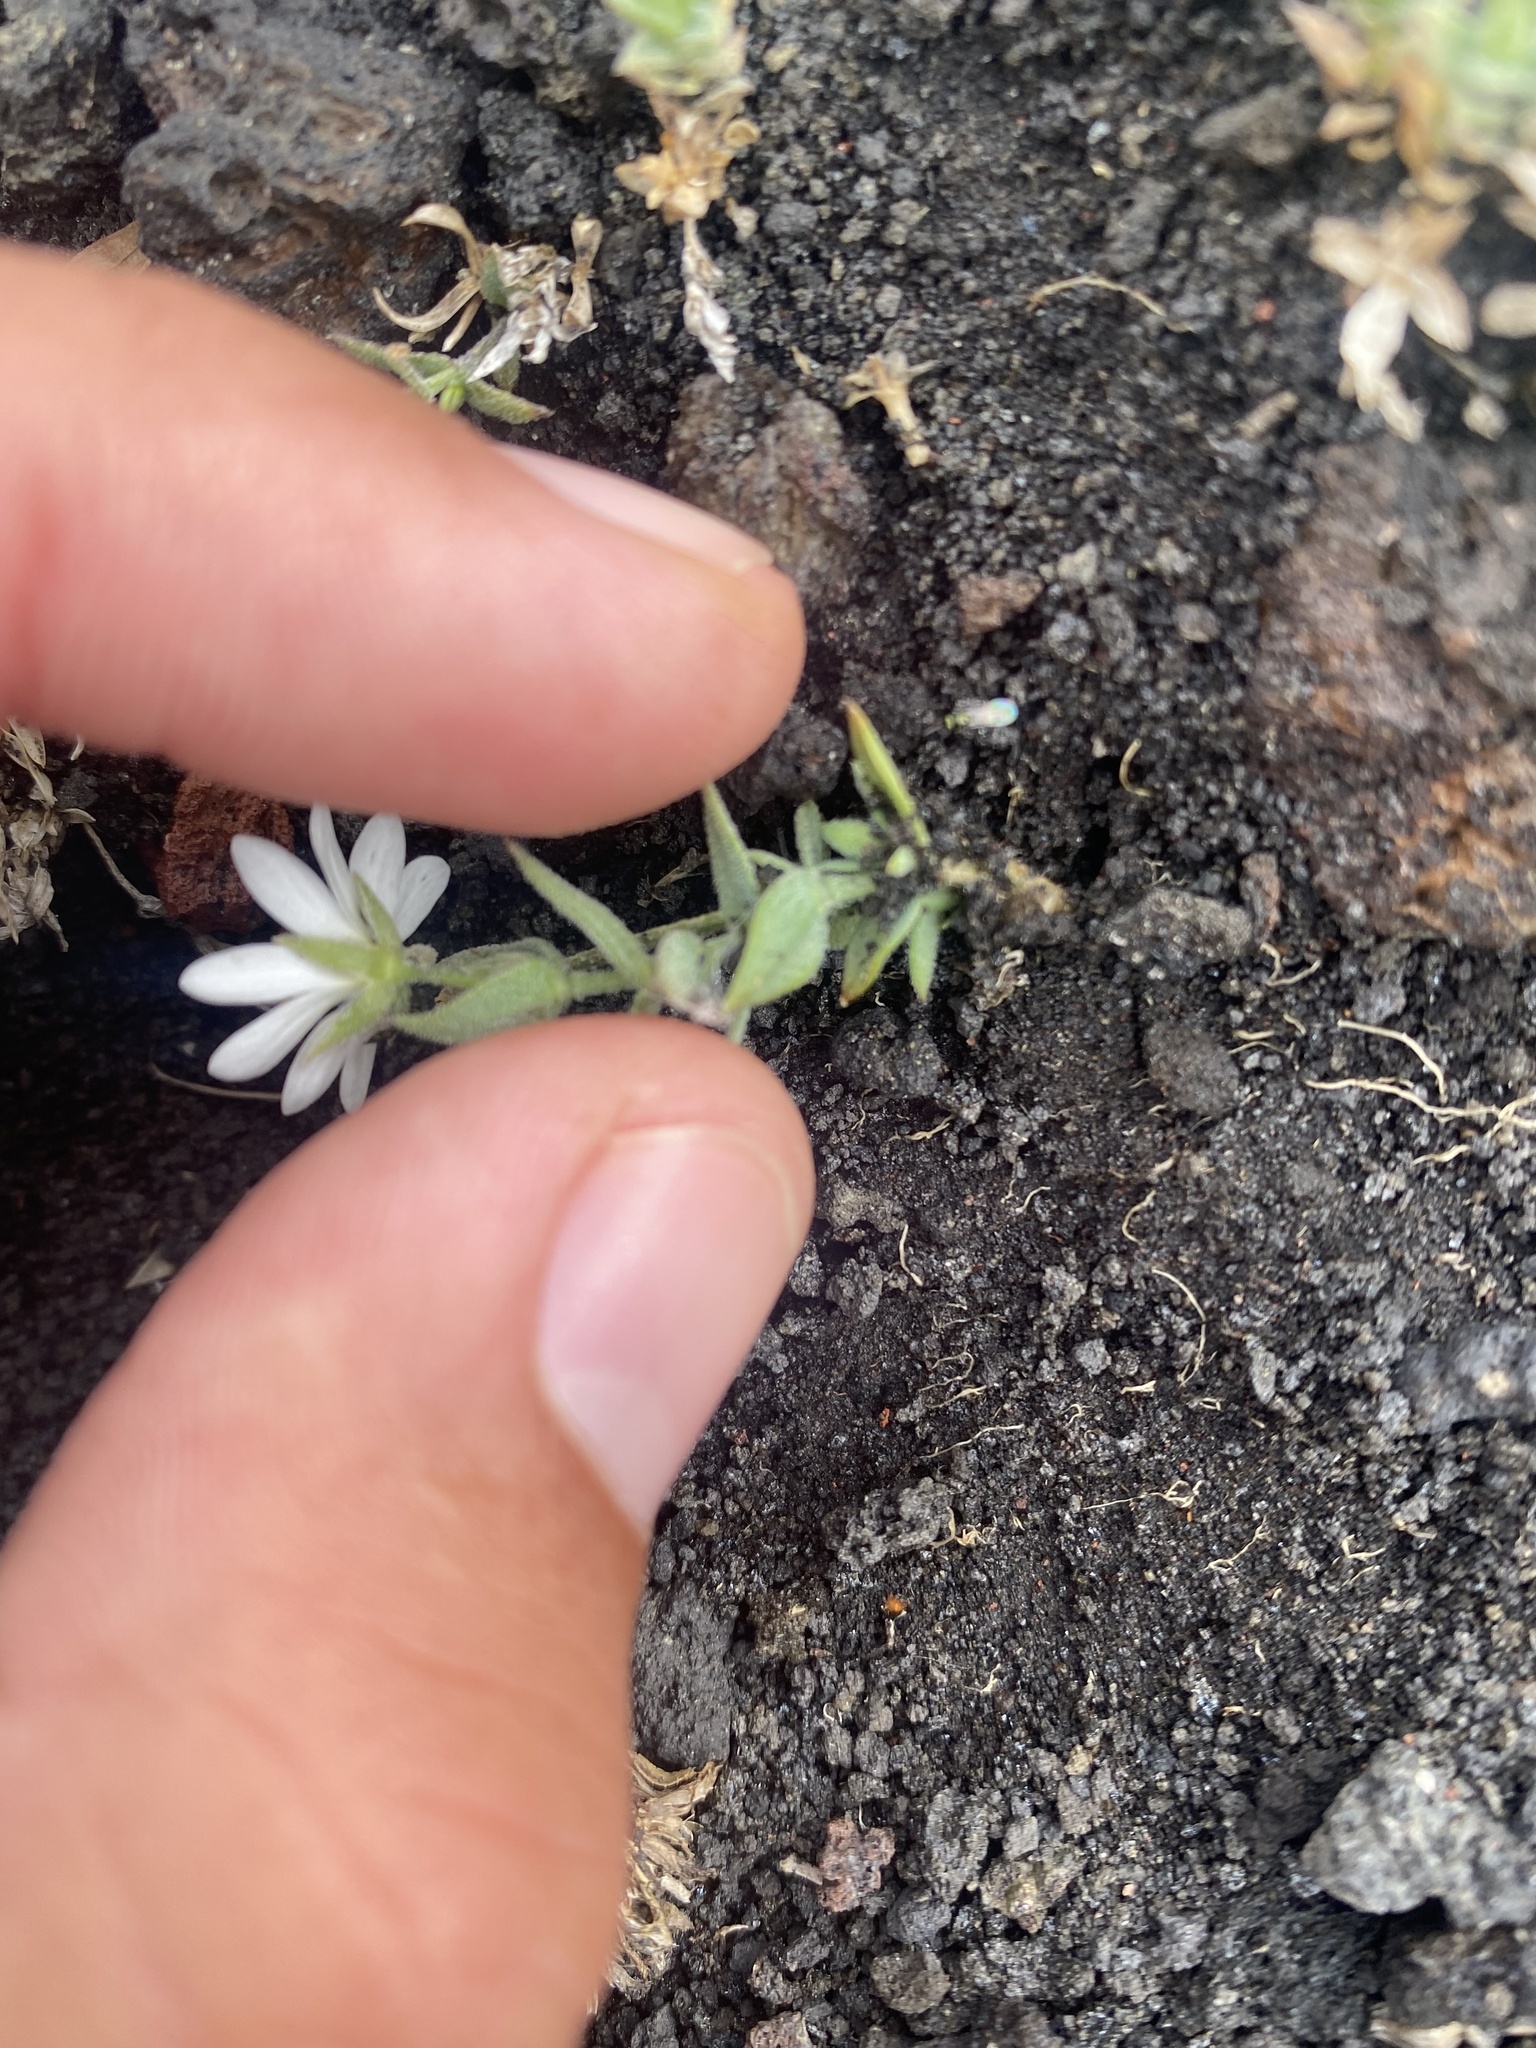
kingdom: Plantae
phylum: Tracheophyta
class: Magnoliopsida
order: Caryophyllales
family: Caryophyllaceae
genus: Stellaria
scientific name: Stellaria eschscholtziana
